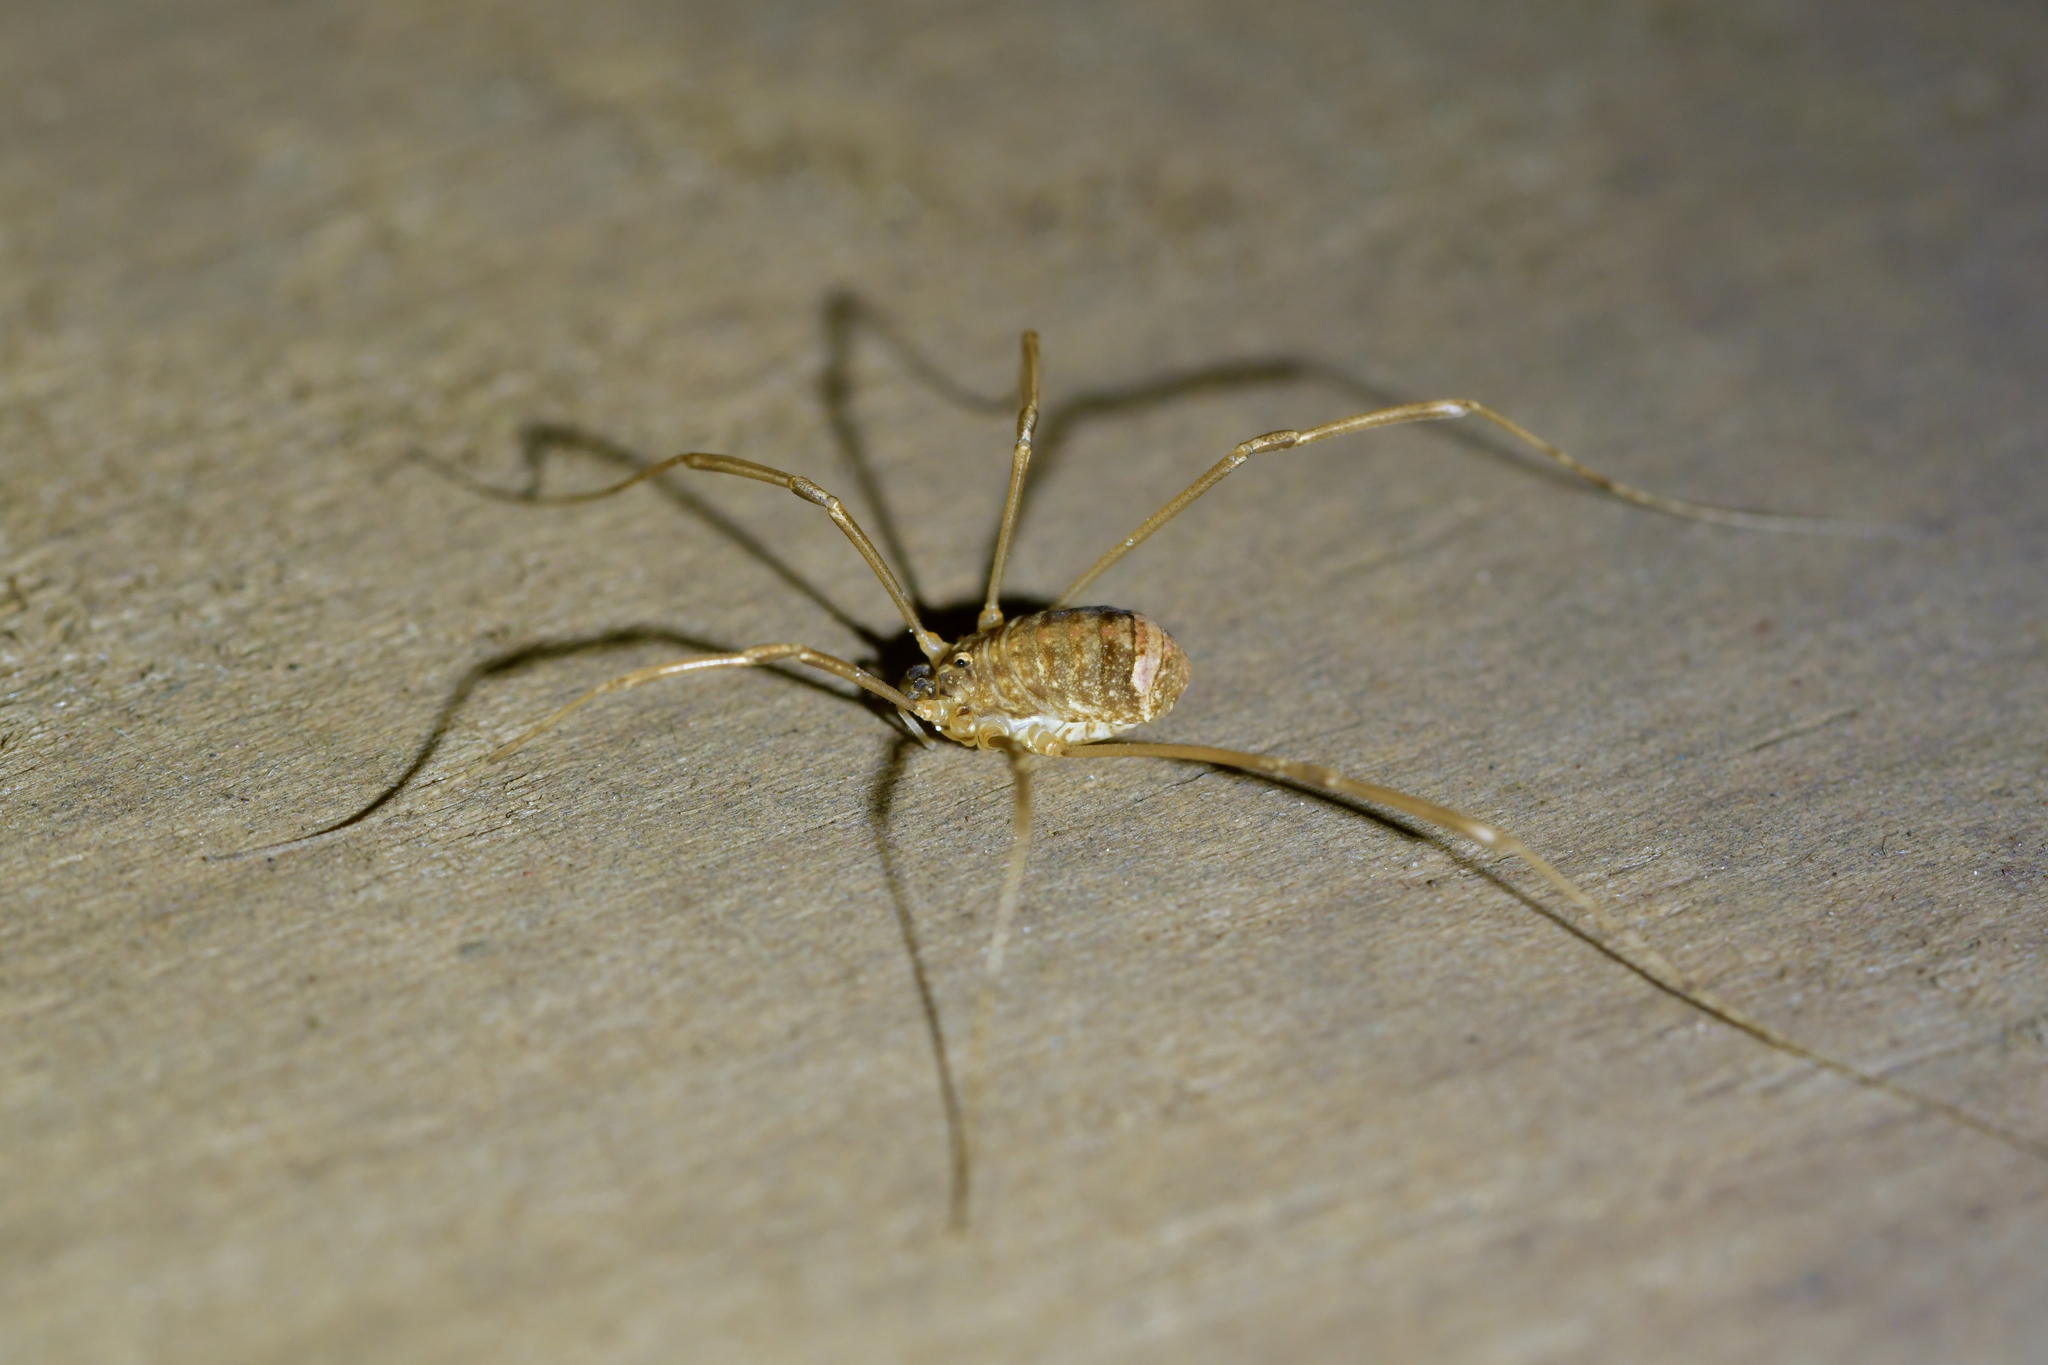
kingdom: Animalia
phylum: Arthropoda
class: Arachnida
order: Opiliones
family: Sclerosomatidae
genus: Nelima
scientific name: Nelima doriae
